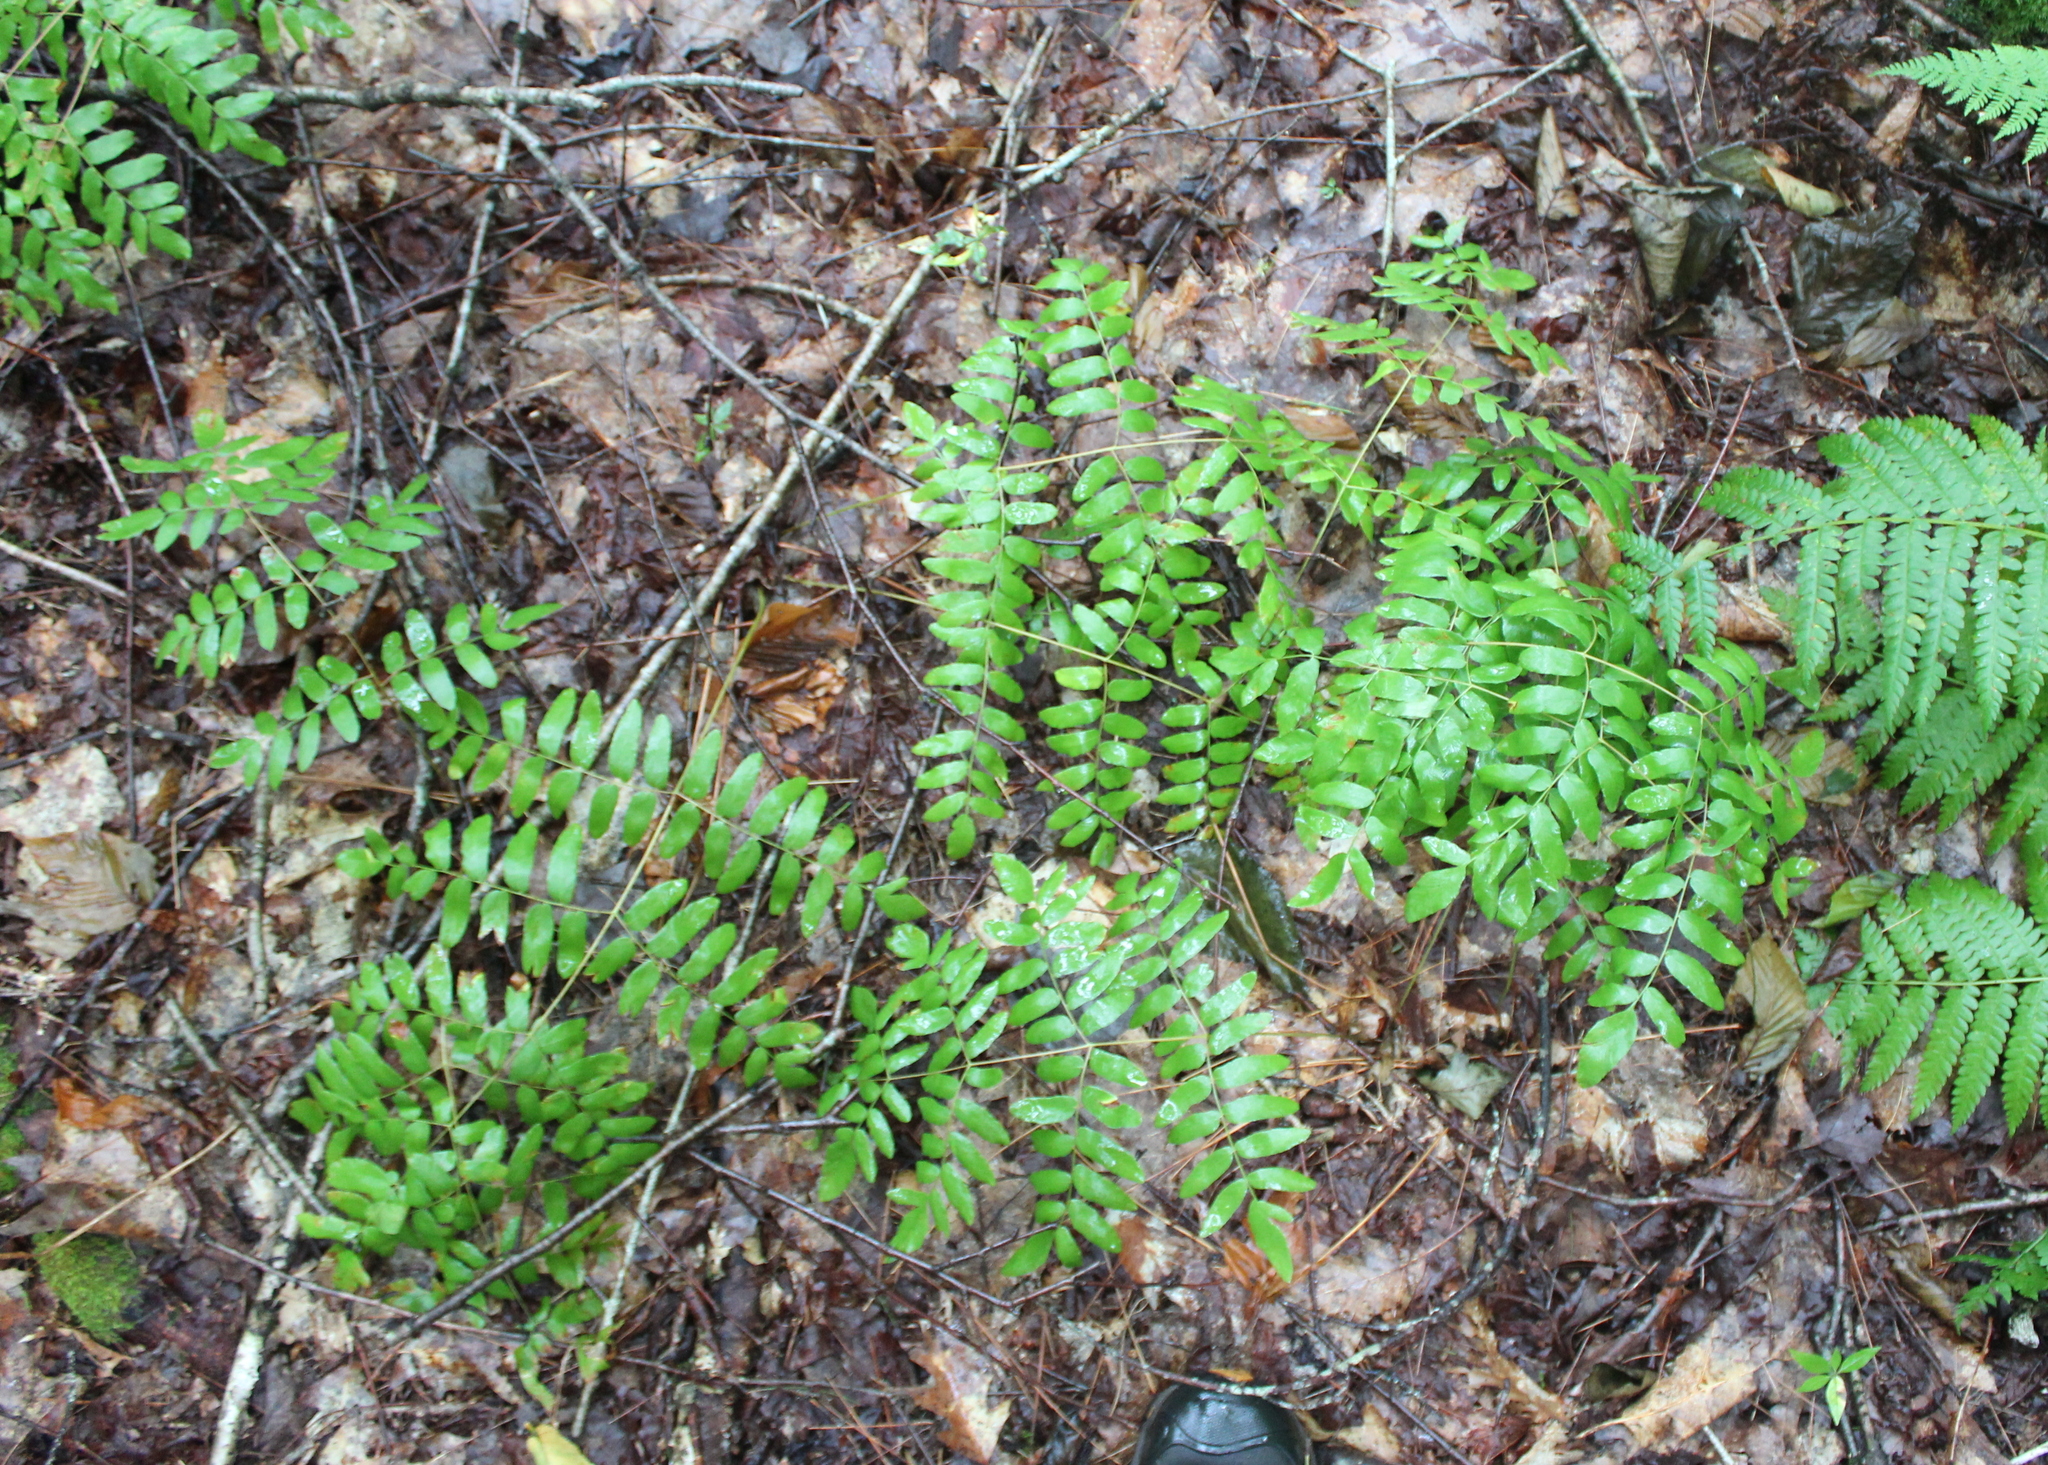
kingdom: Plantae
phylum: Tracheophyta
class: Polypodiopsida
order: Osmundales
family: Osmundaceae
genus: Osmunda
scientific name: Osmunda spectabilis
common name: American royal fern
